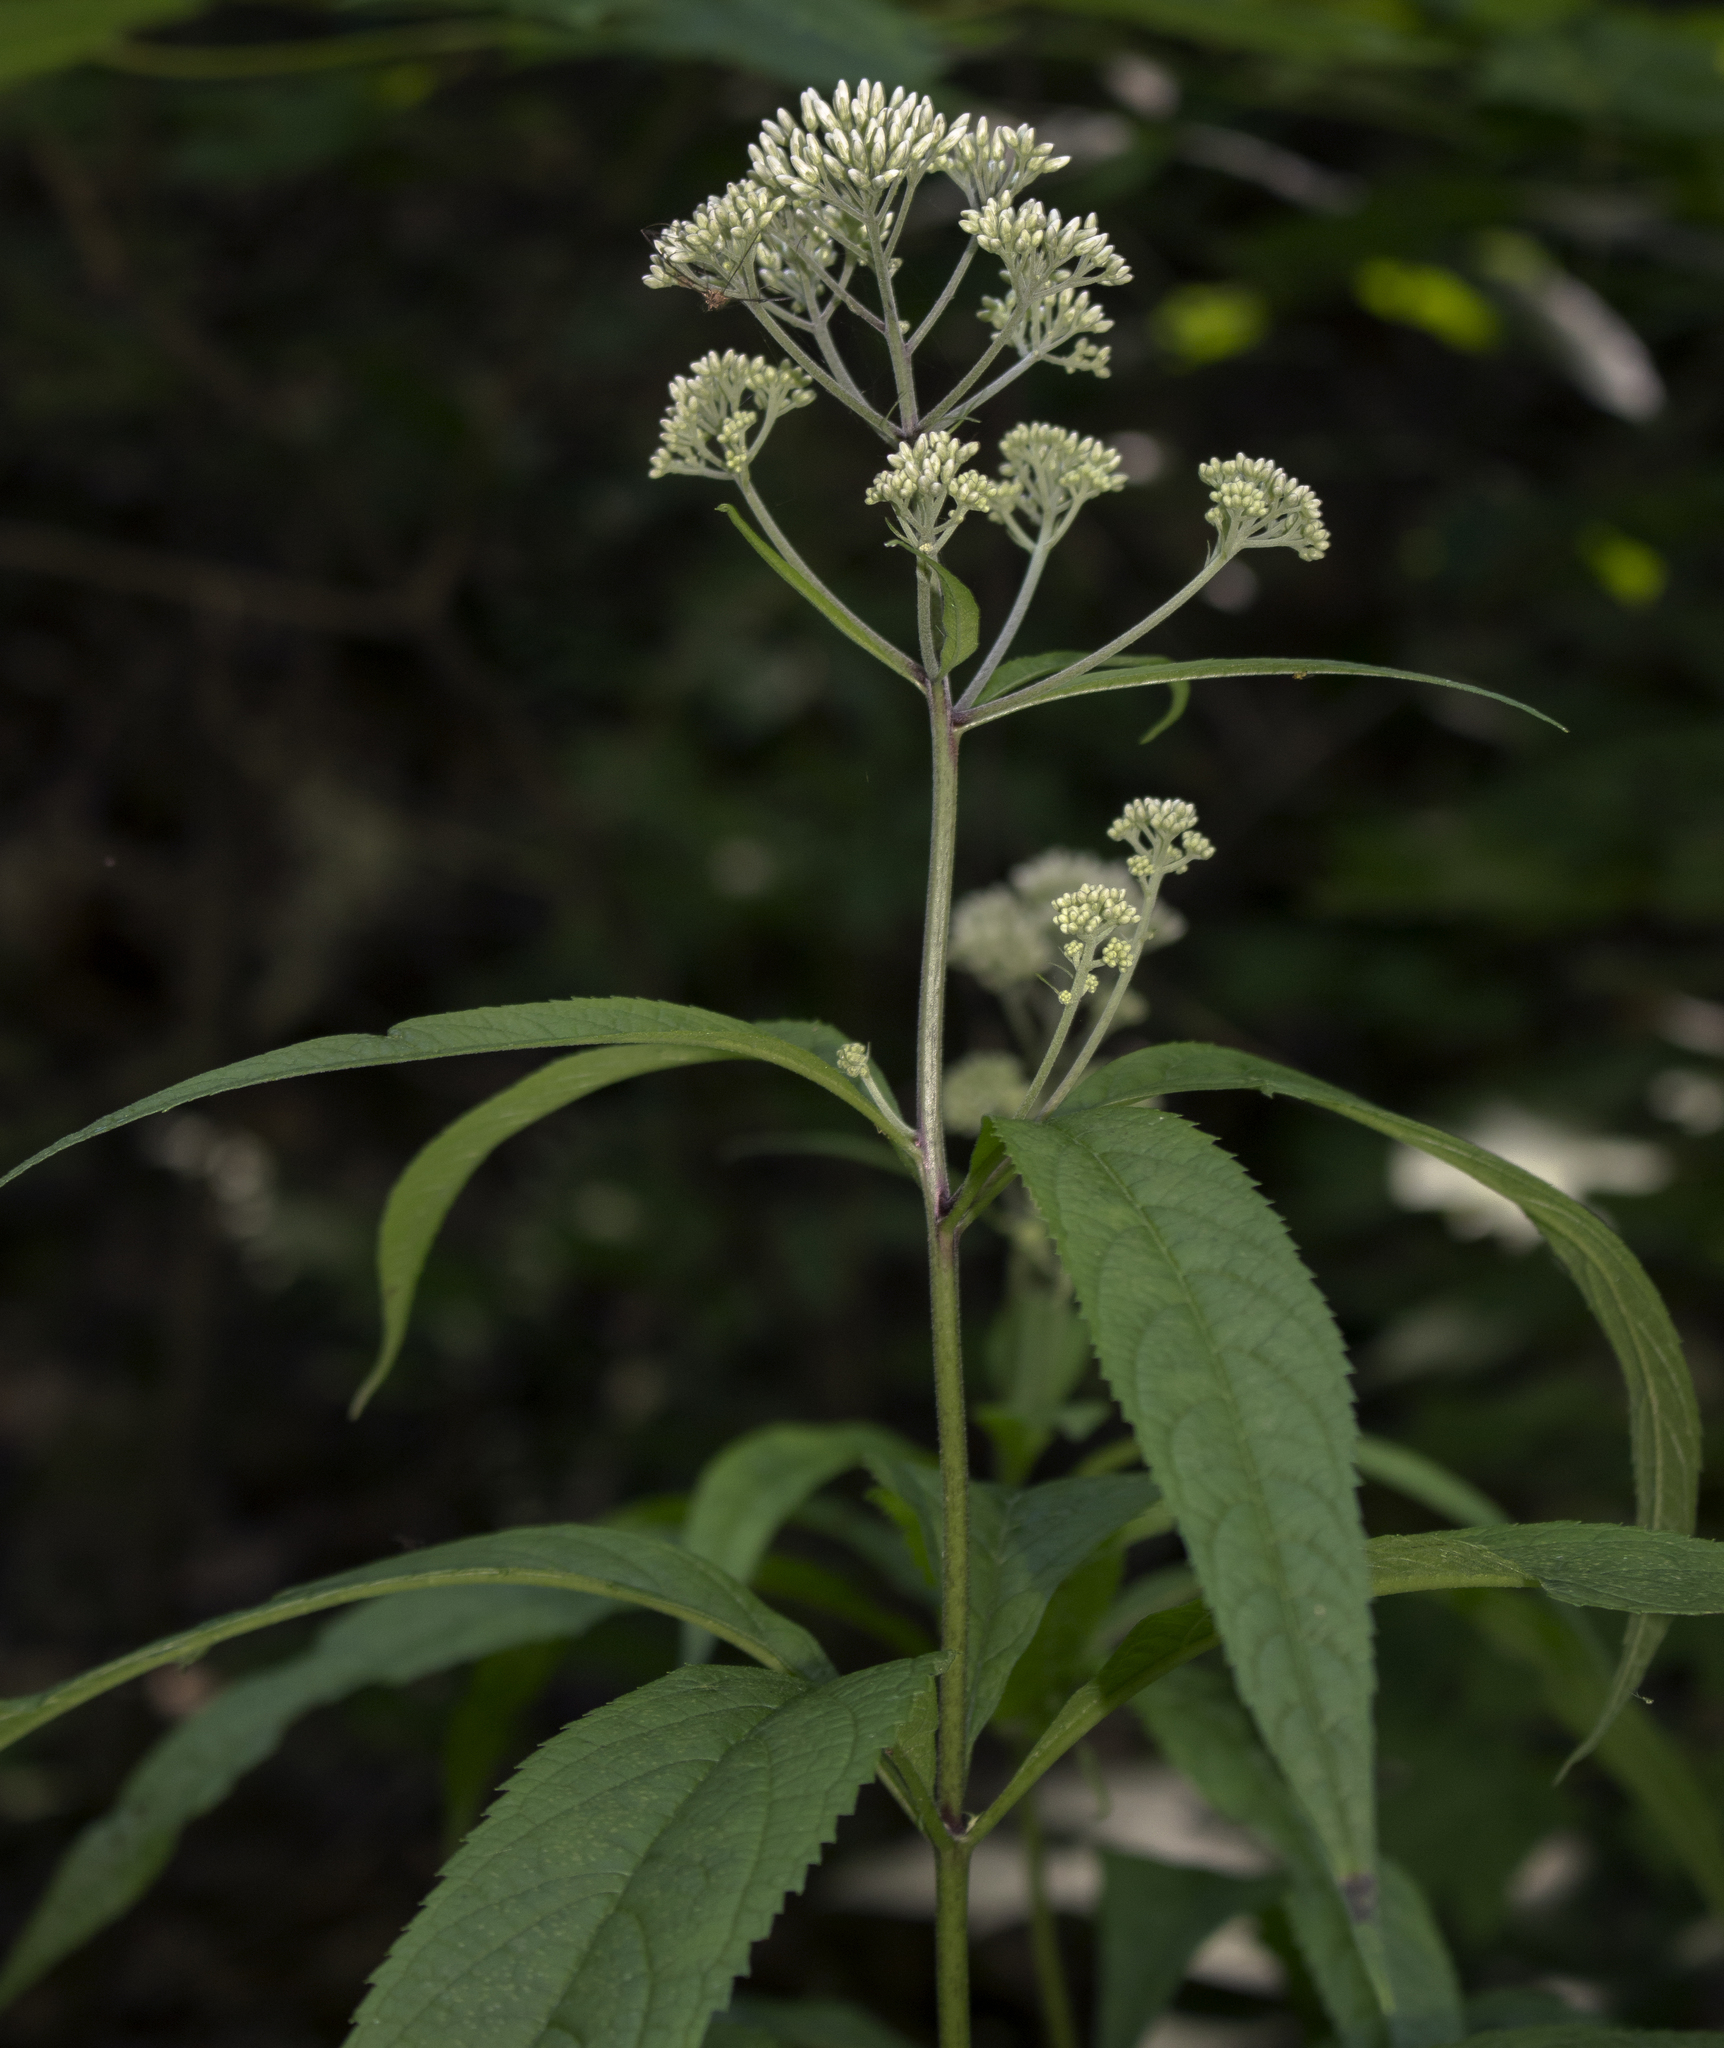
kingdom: Plantae
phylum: Tracheophyta
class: Magnoliopsida
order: Asterales
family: Asteraceae
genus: Eutrochium
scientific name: Eutrochium purpureum
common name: Gravelroot
